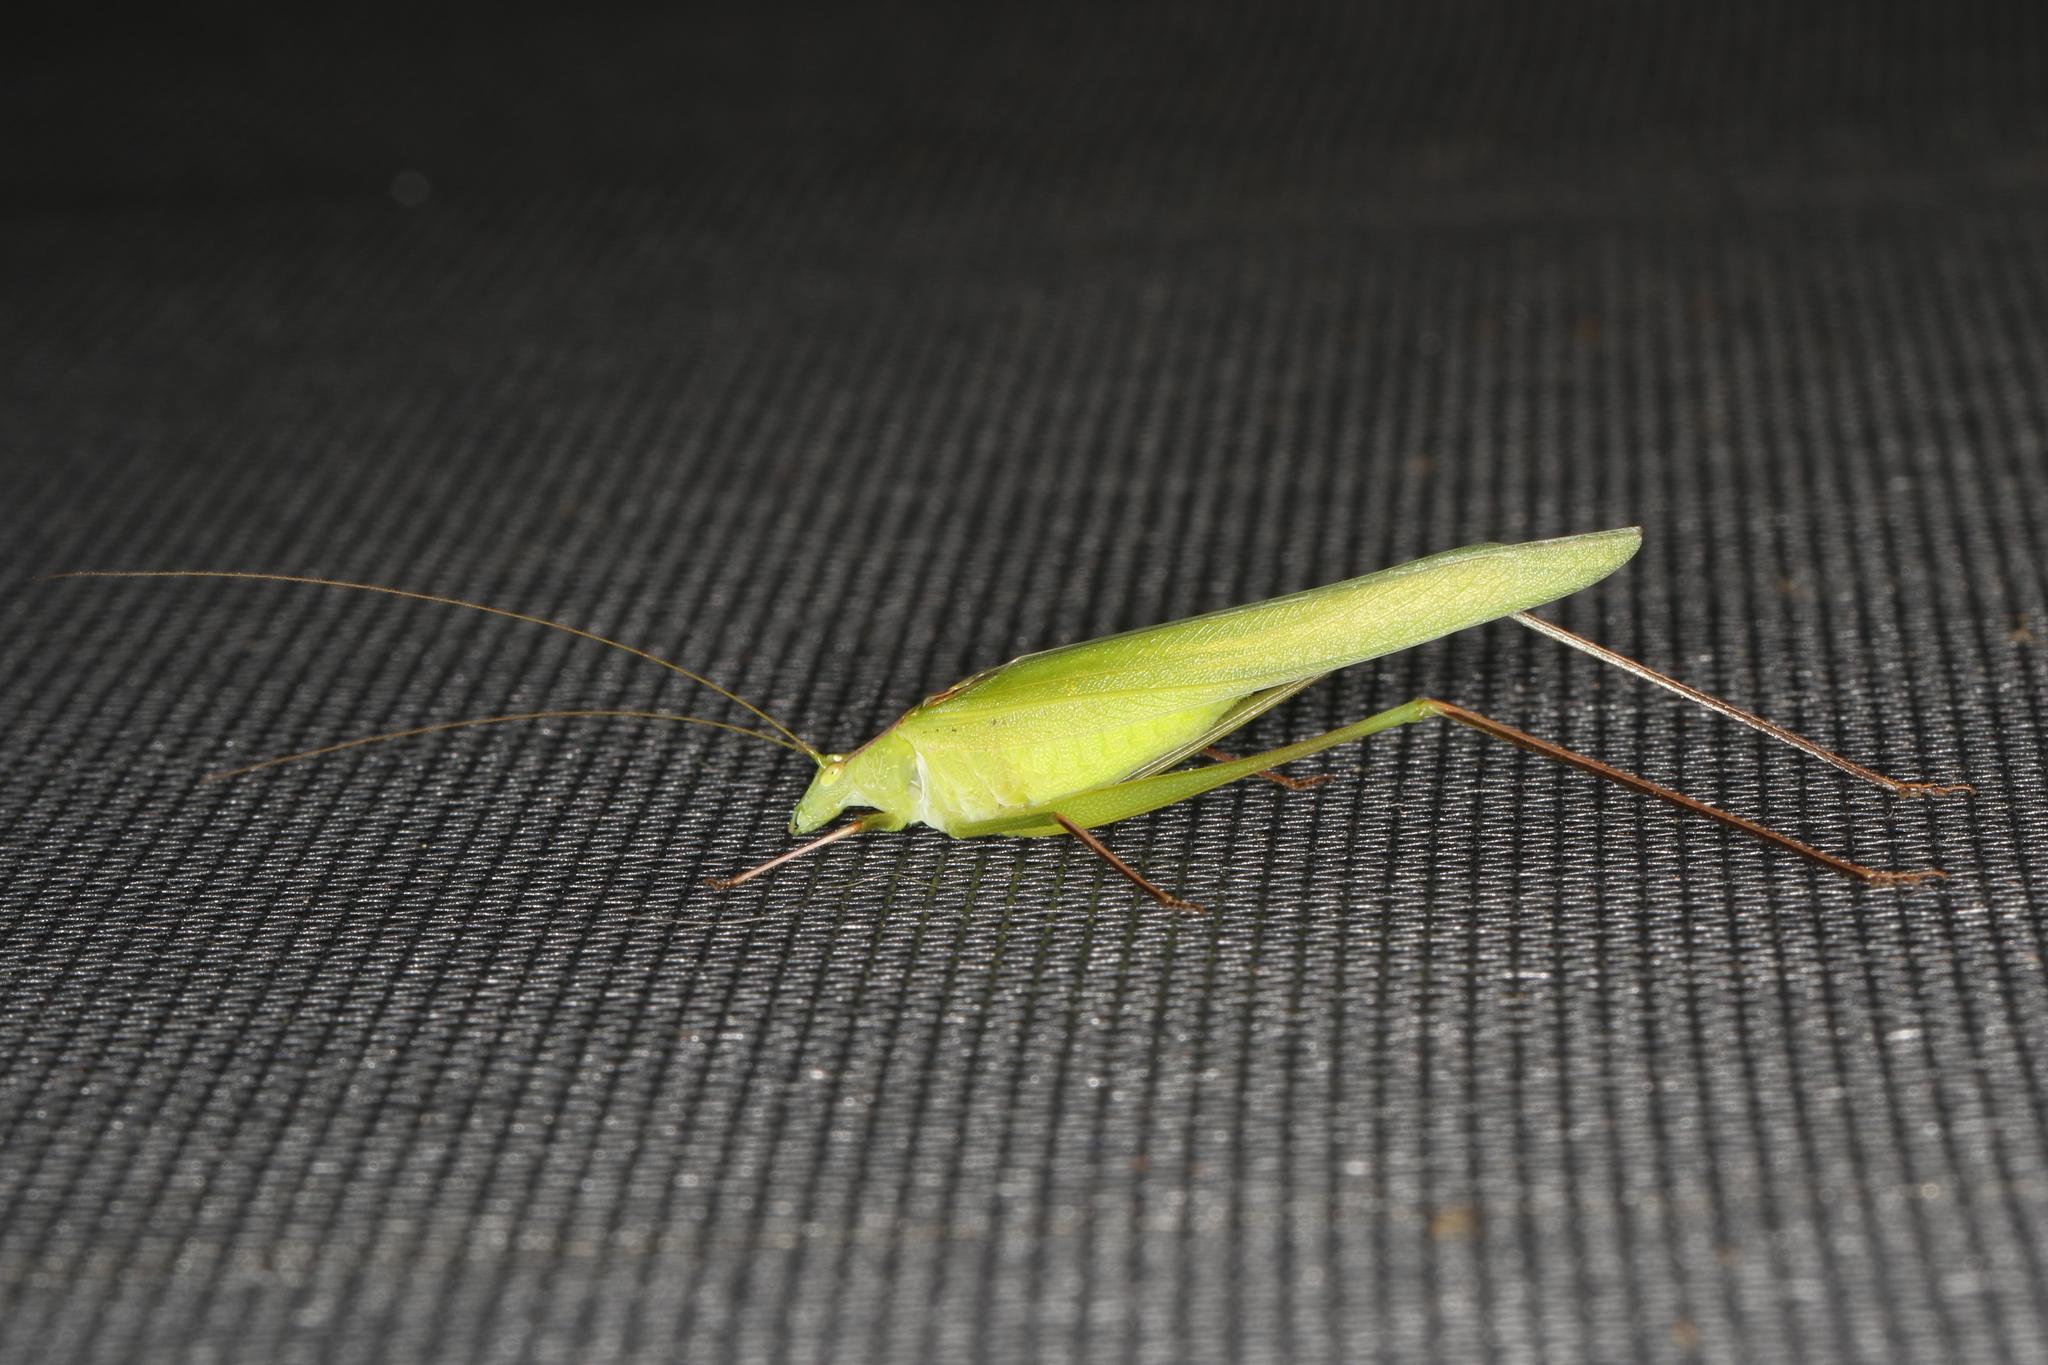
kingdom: Animalia
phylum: Arthropoda
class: Insecta
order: Orthoptera
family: Tettigoniidae
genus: Polichne
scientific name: Polichne parvicauda
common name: Short tailed polichene
